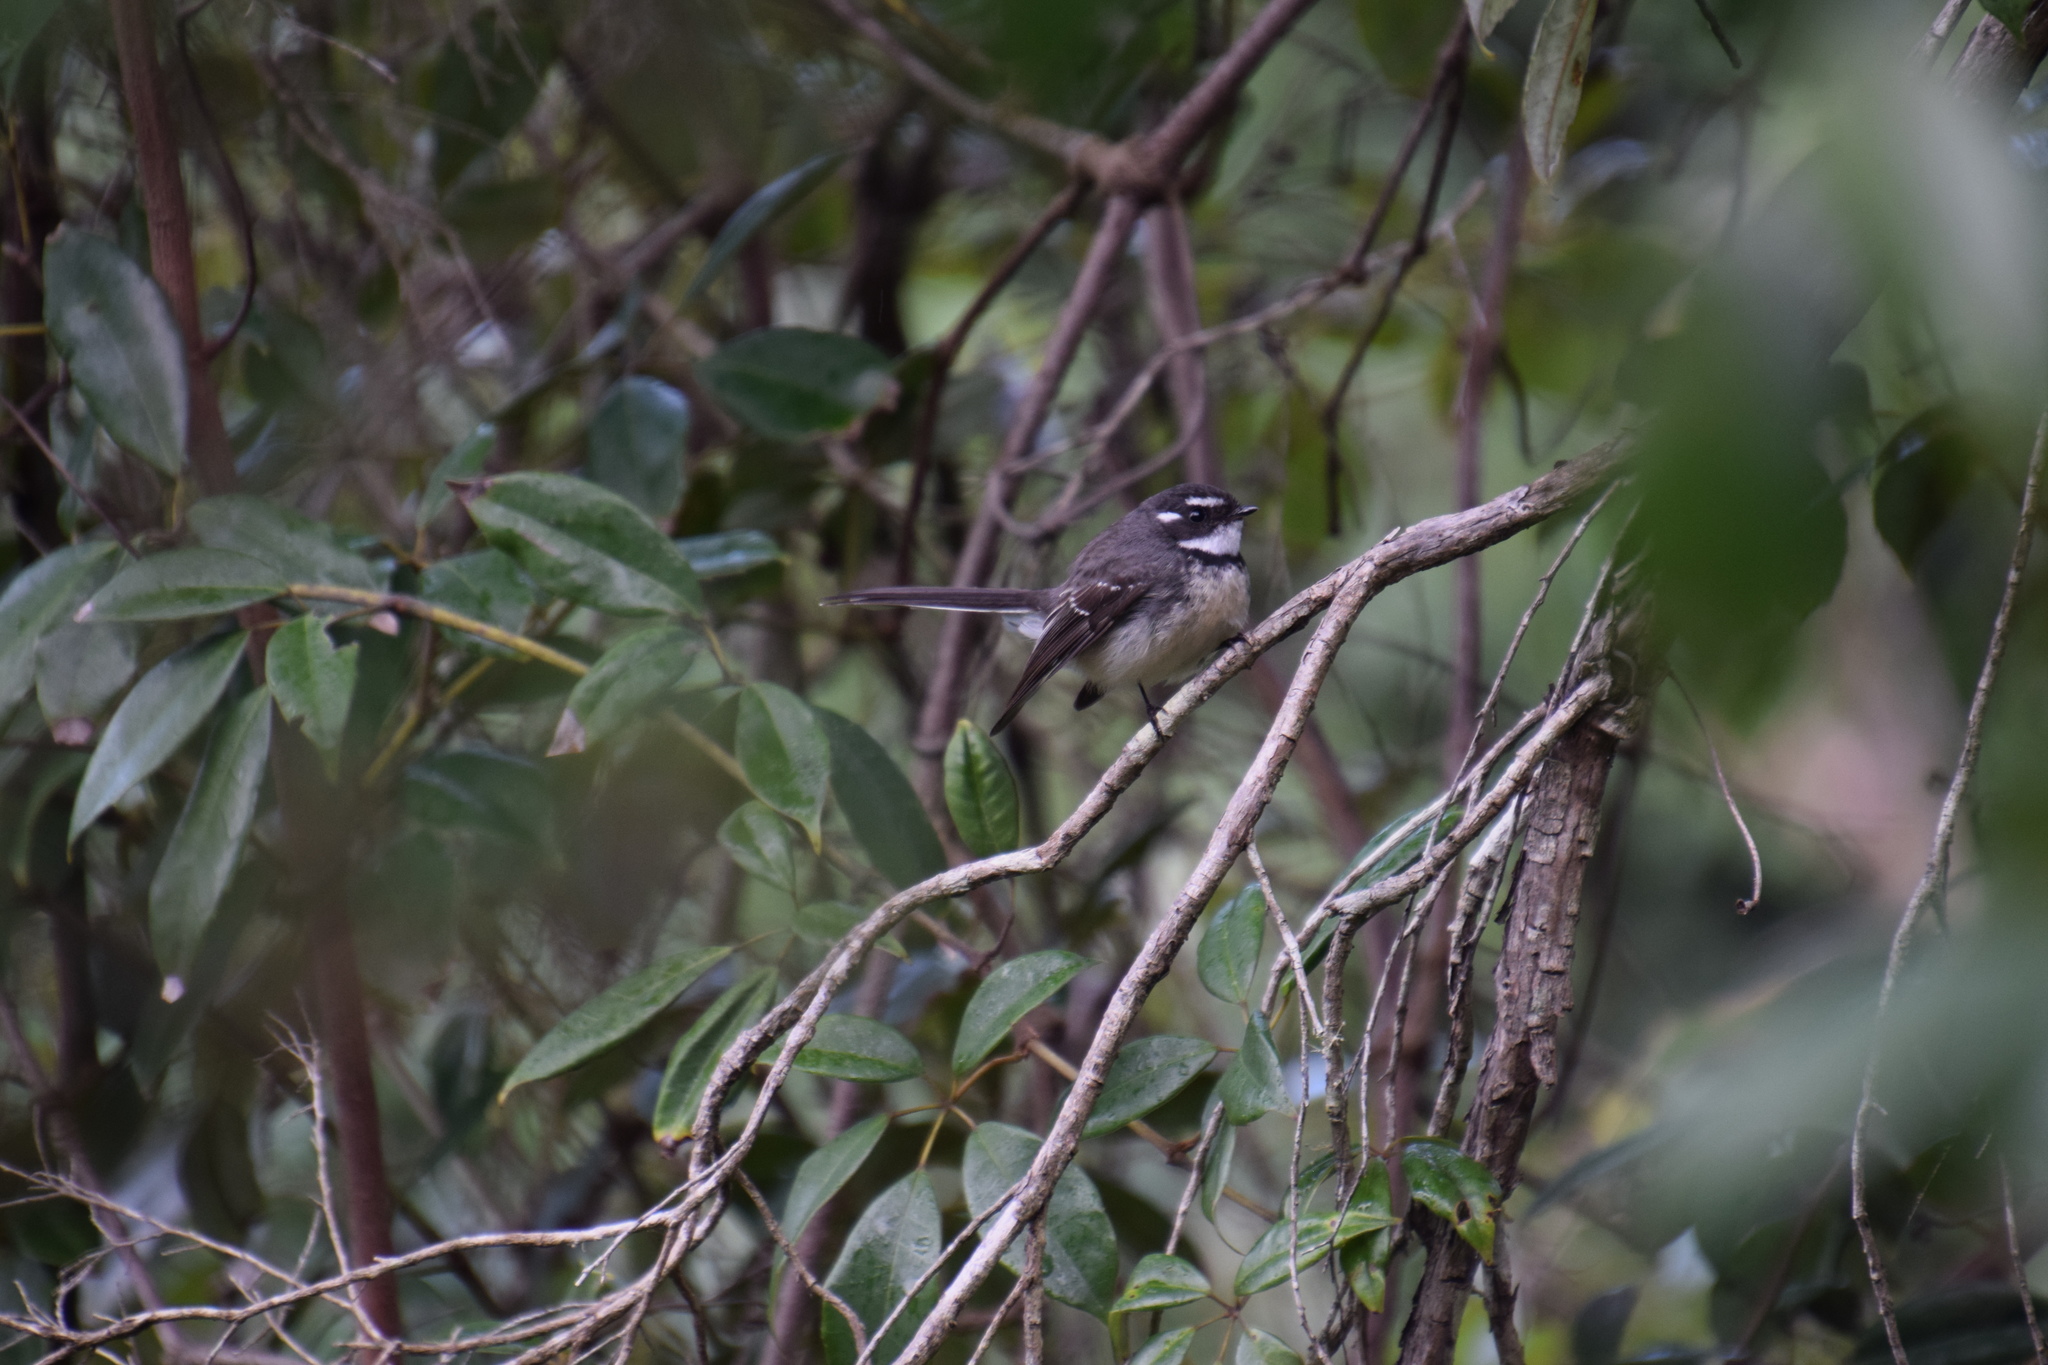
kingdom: Animalia
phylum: Chordata
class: Aves
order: Passeriformes
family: Rhipiduridae
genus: Rhipidura
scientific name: Rhipidura albiscapa
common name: Grey fantail
